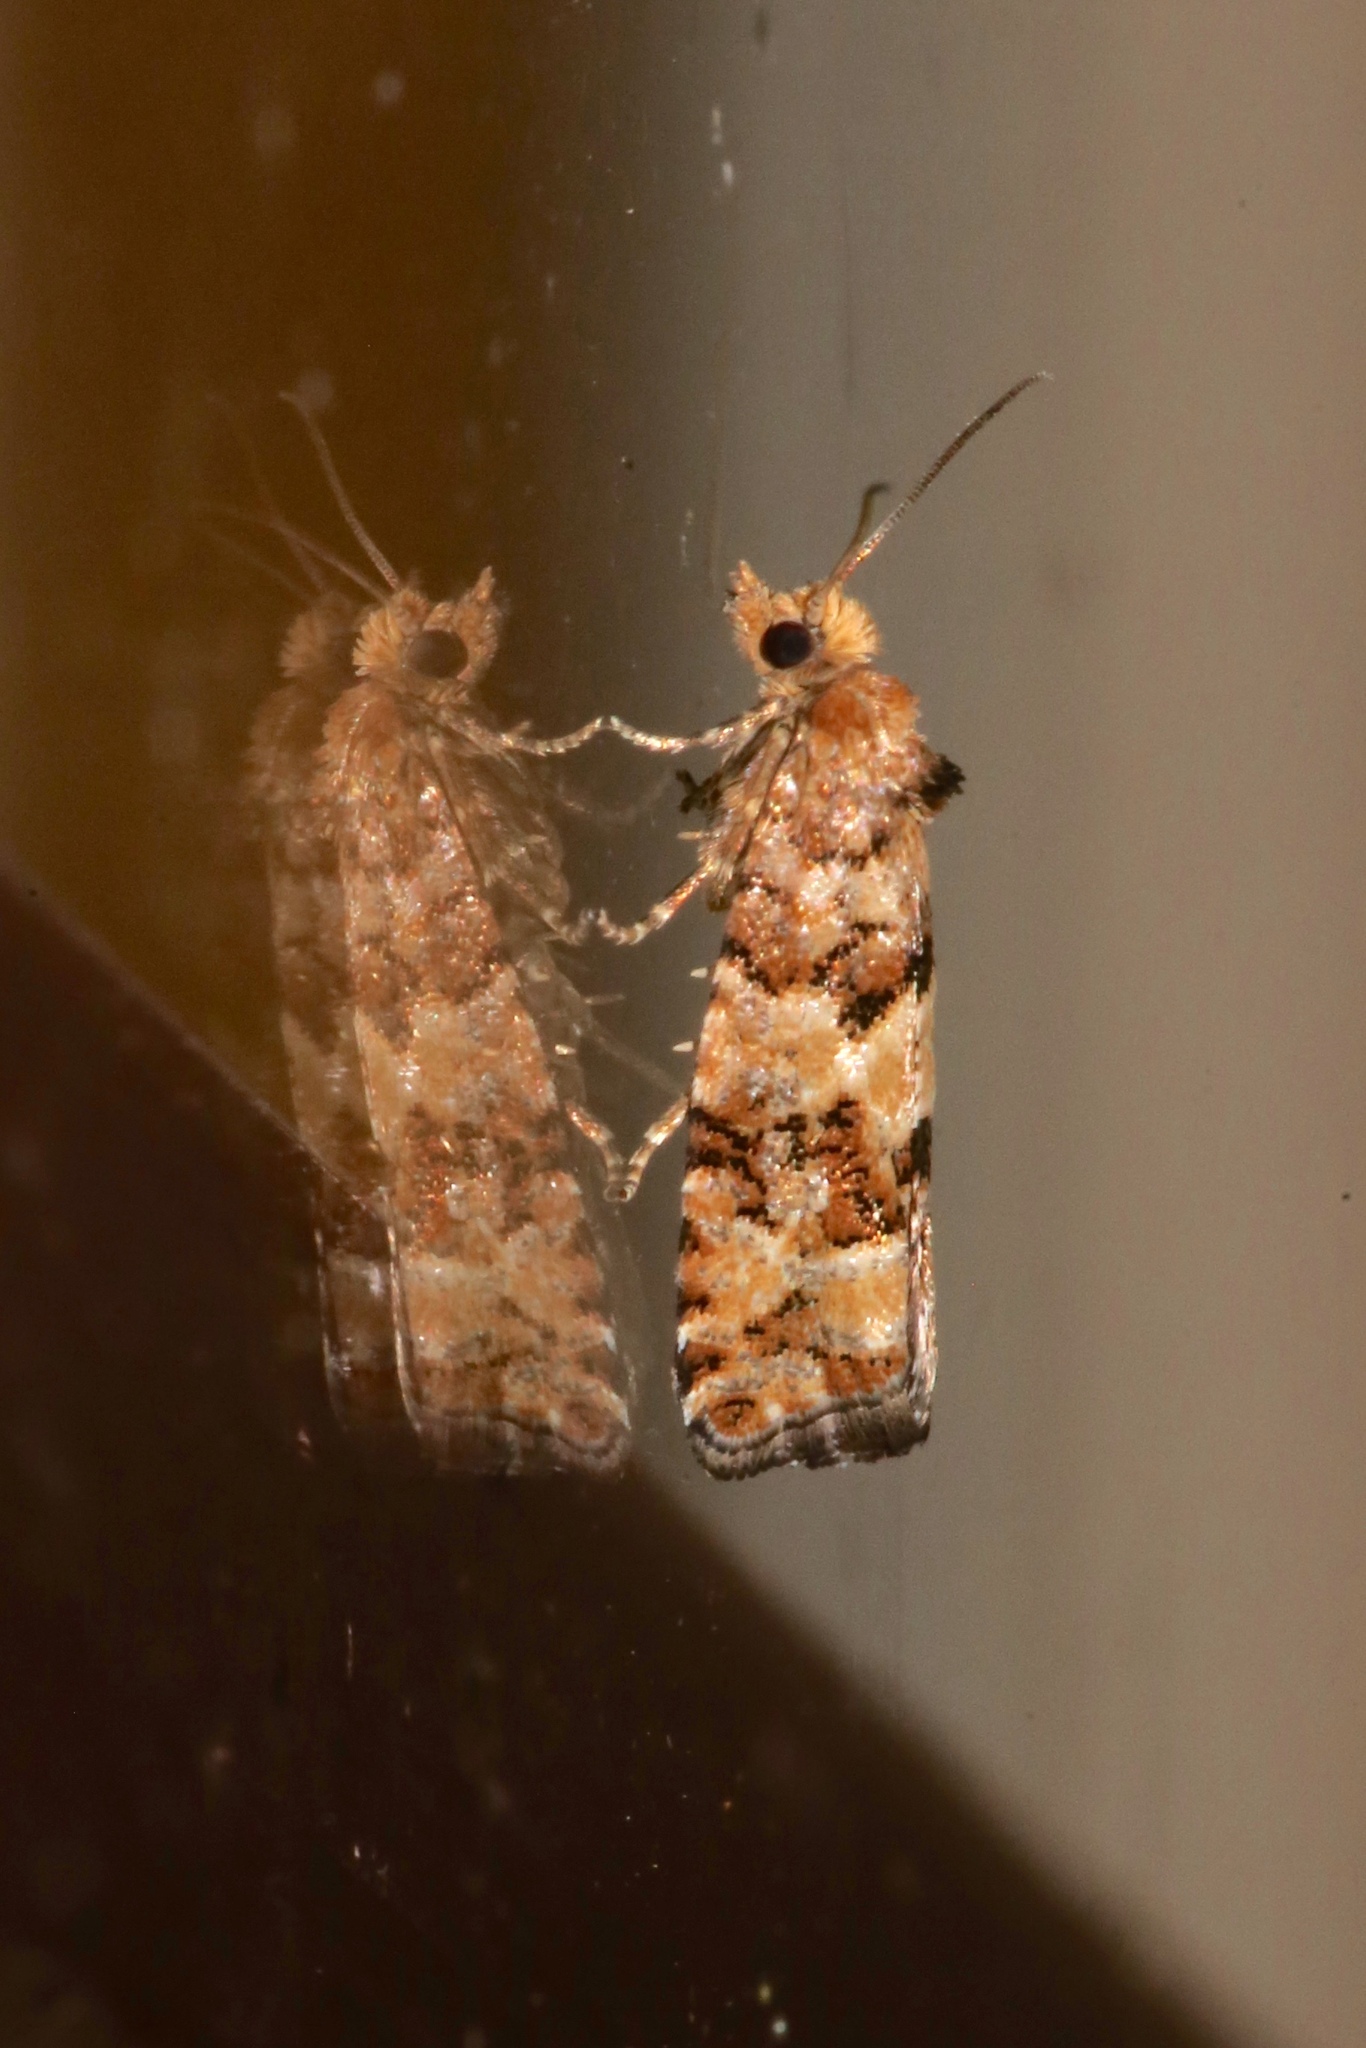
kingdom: Animalia
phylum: Arthropoda
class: Insecta
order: Lepidoptera
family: Tortricidae
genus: Eucopina
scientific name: Eucopina tocullionana
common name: White pinecone borer moth
